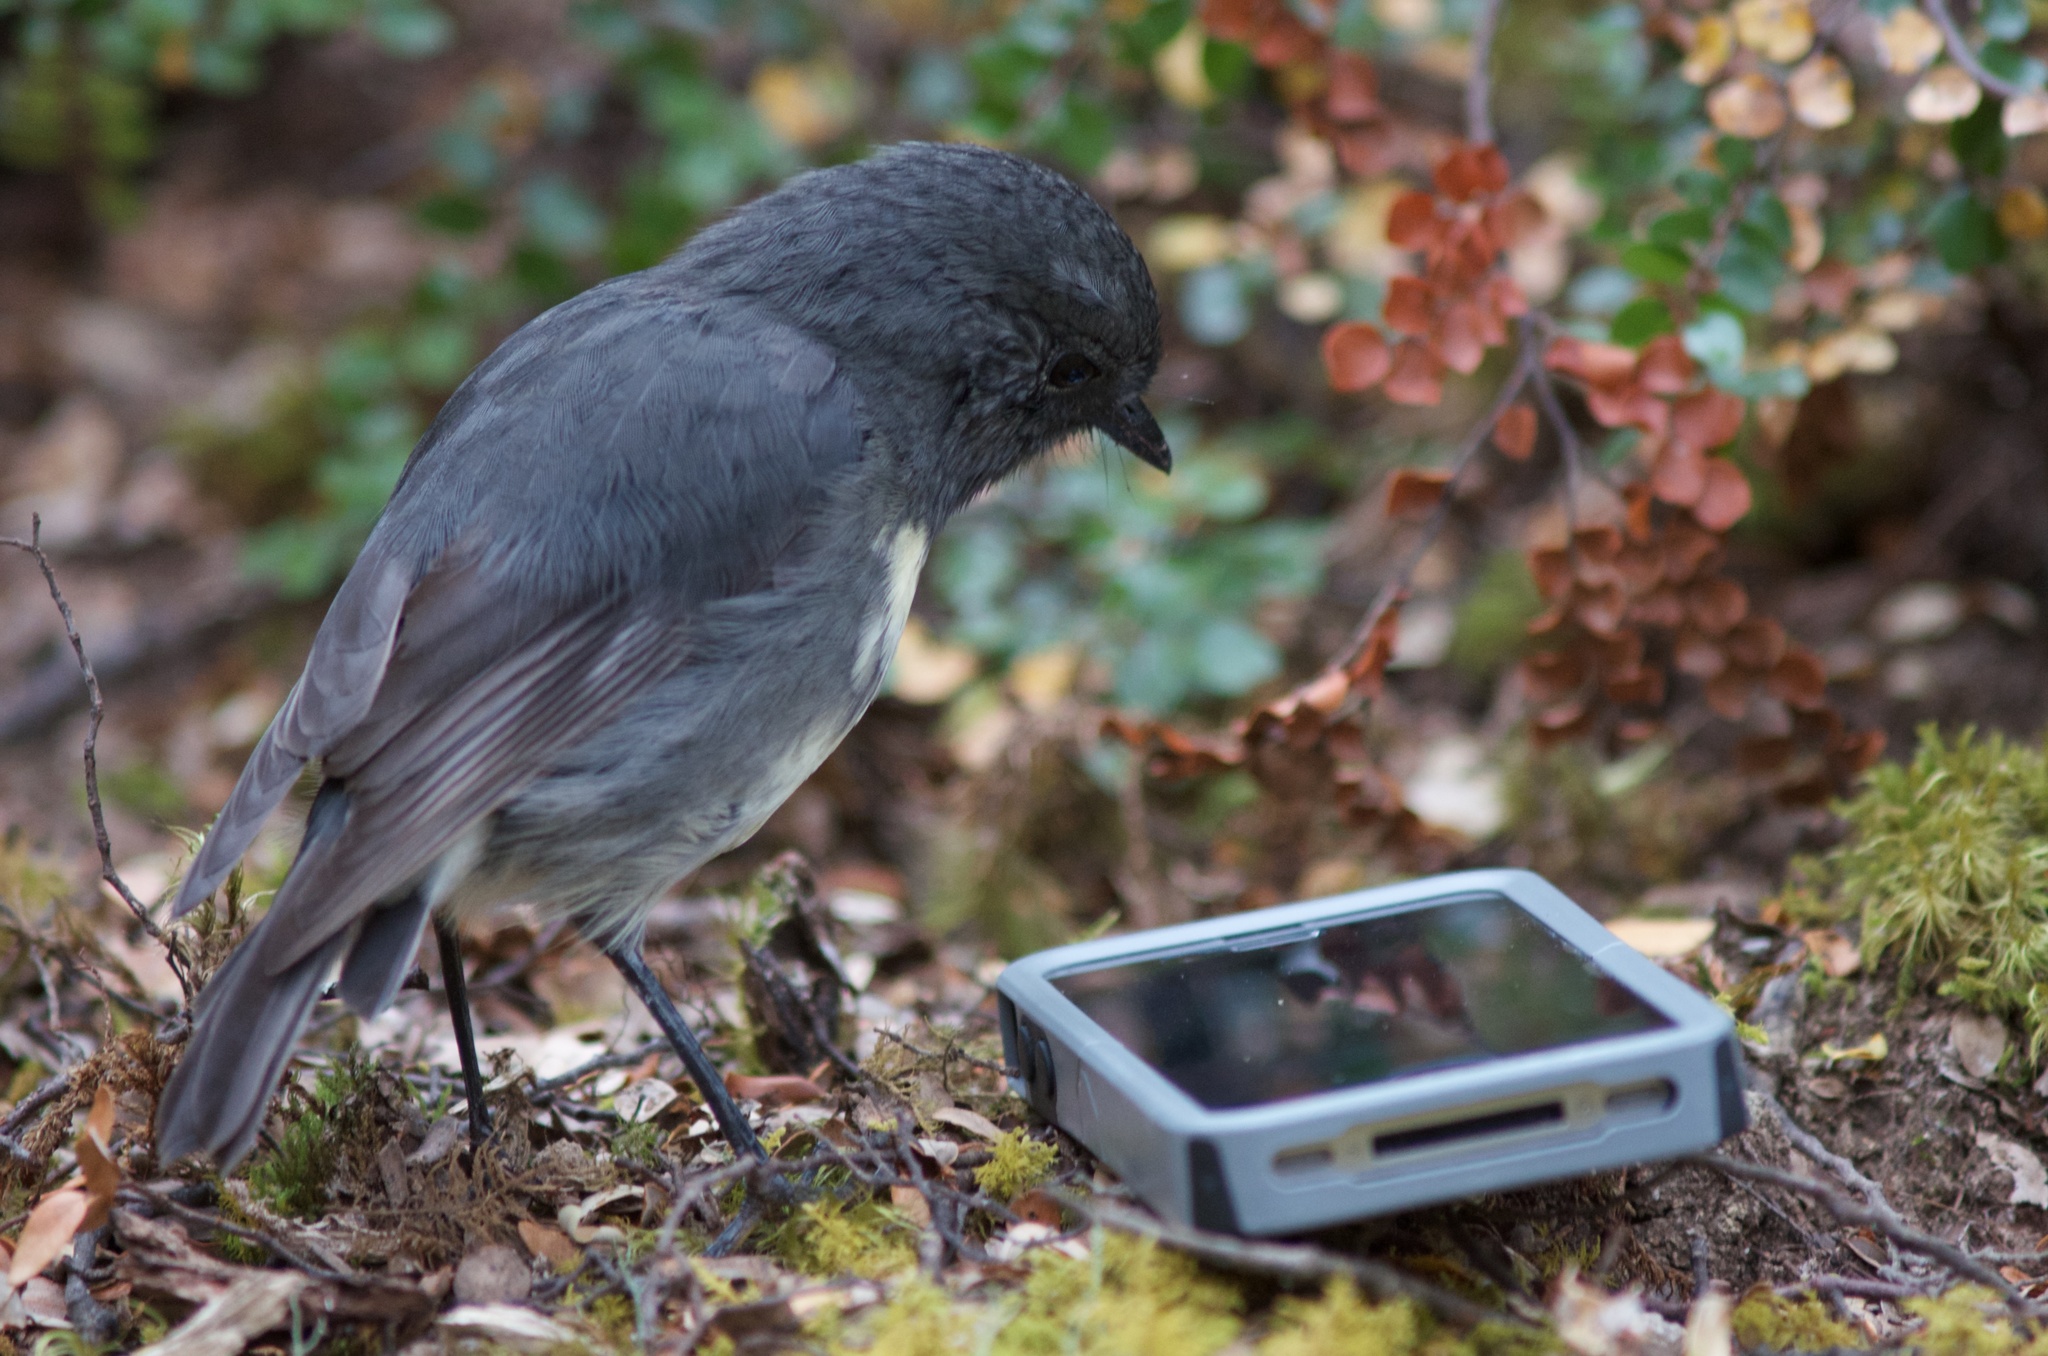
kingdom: Animalia
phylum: Chordata
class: Aves
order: Passeriformes
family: Petroicidae
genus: Petroica
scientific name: Petroica australis
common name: New zealand robin
